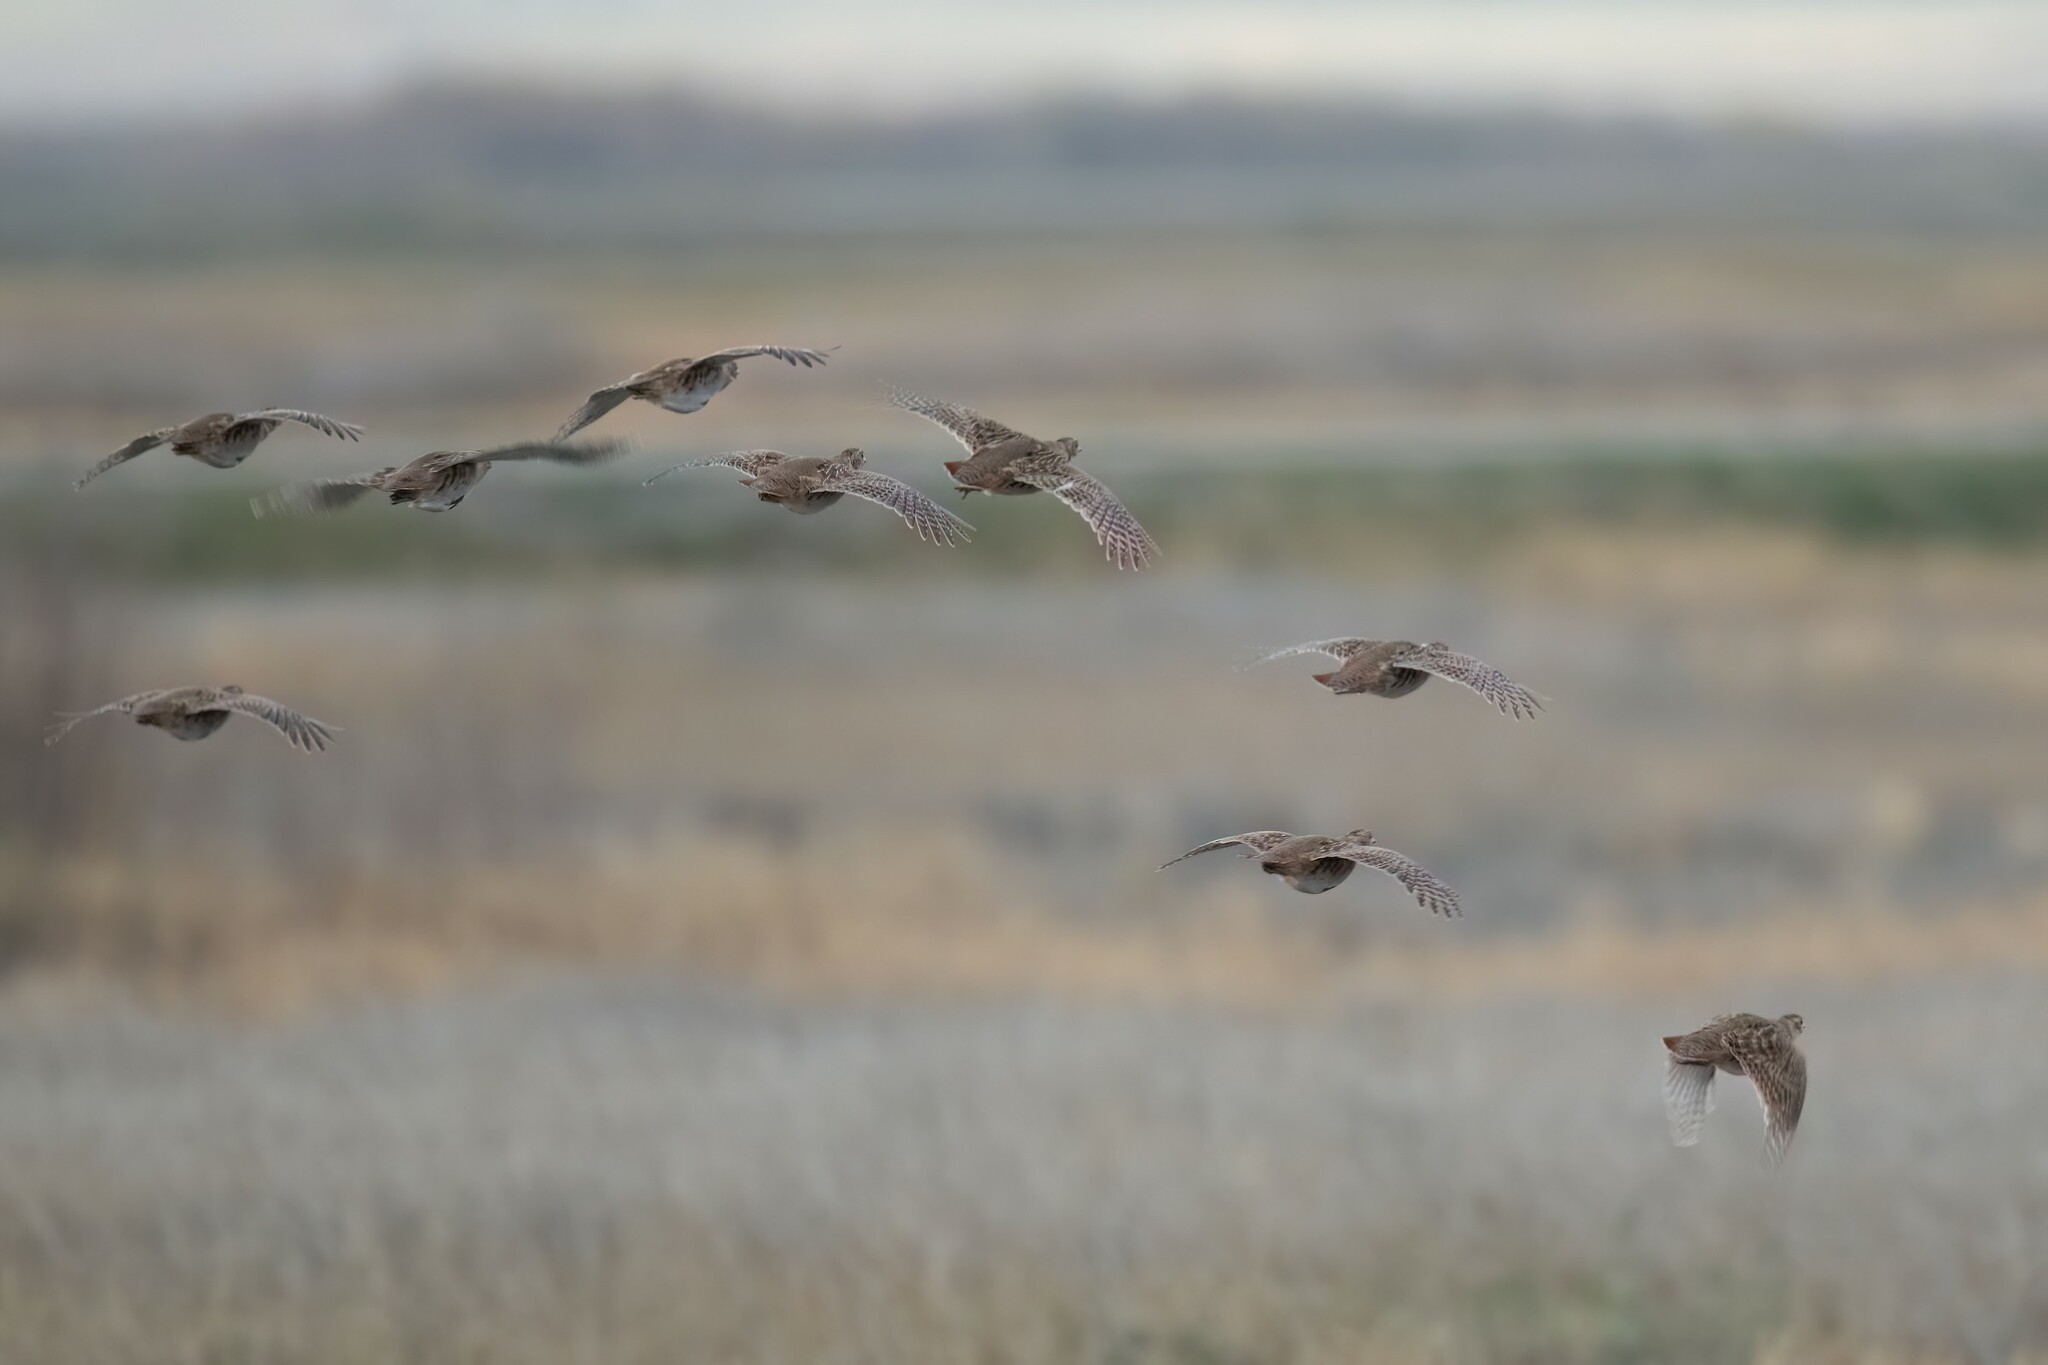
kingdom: Animalia
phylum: Chordata
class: Aves
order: Galliformes
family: Phasianidae
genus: Perdix
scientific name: Perdix perdix
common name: Grey partridge
